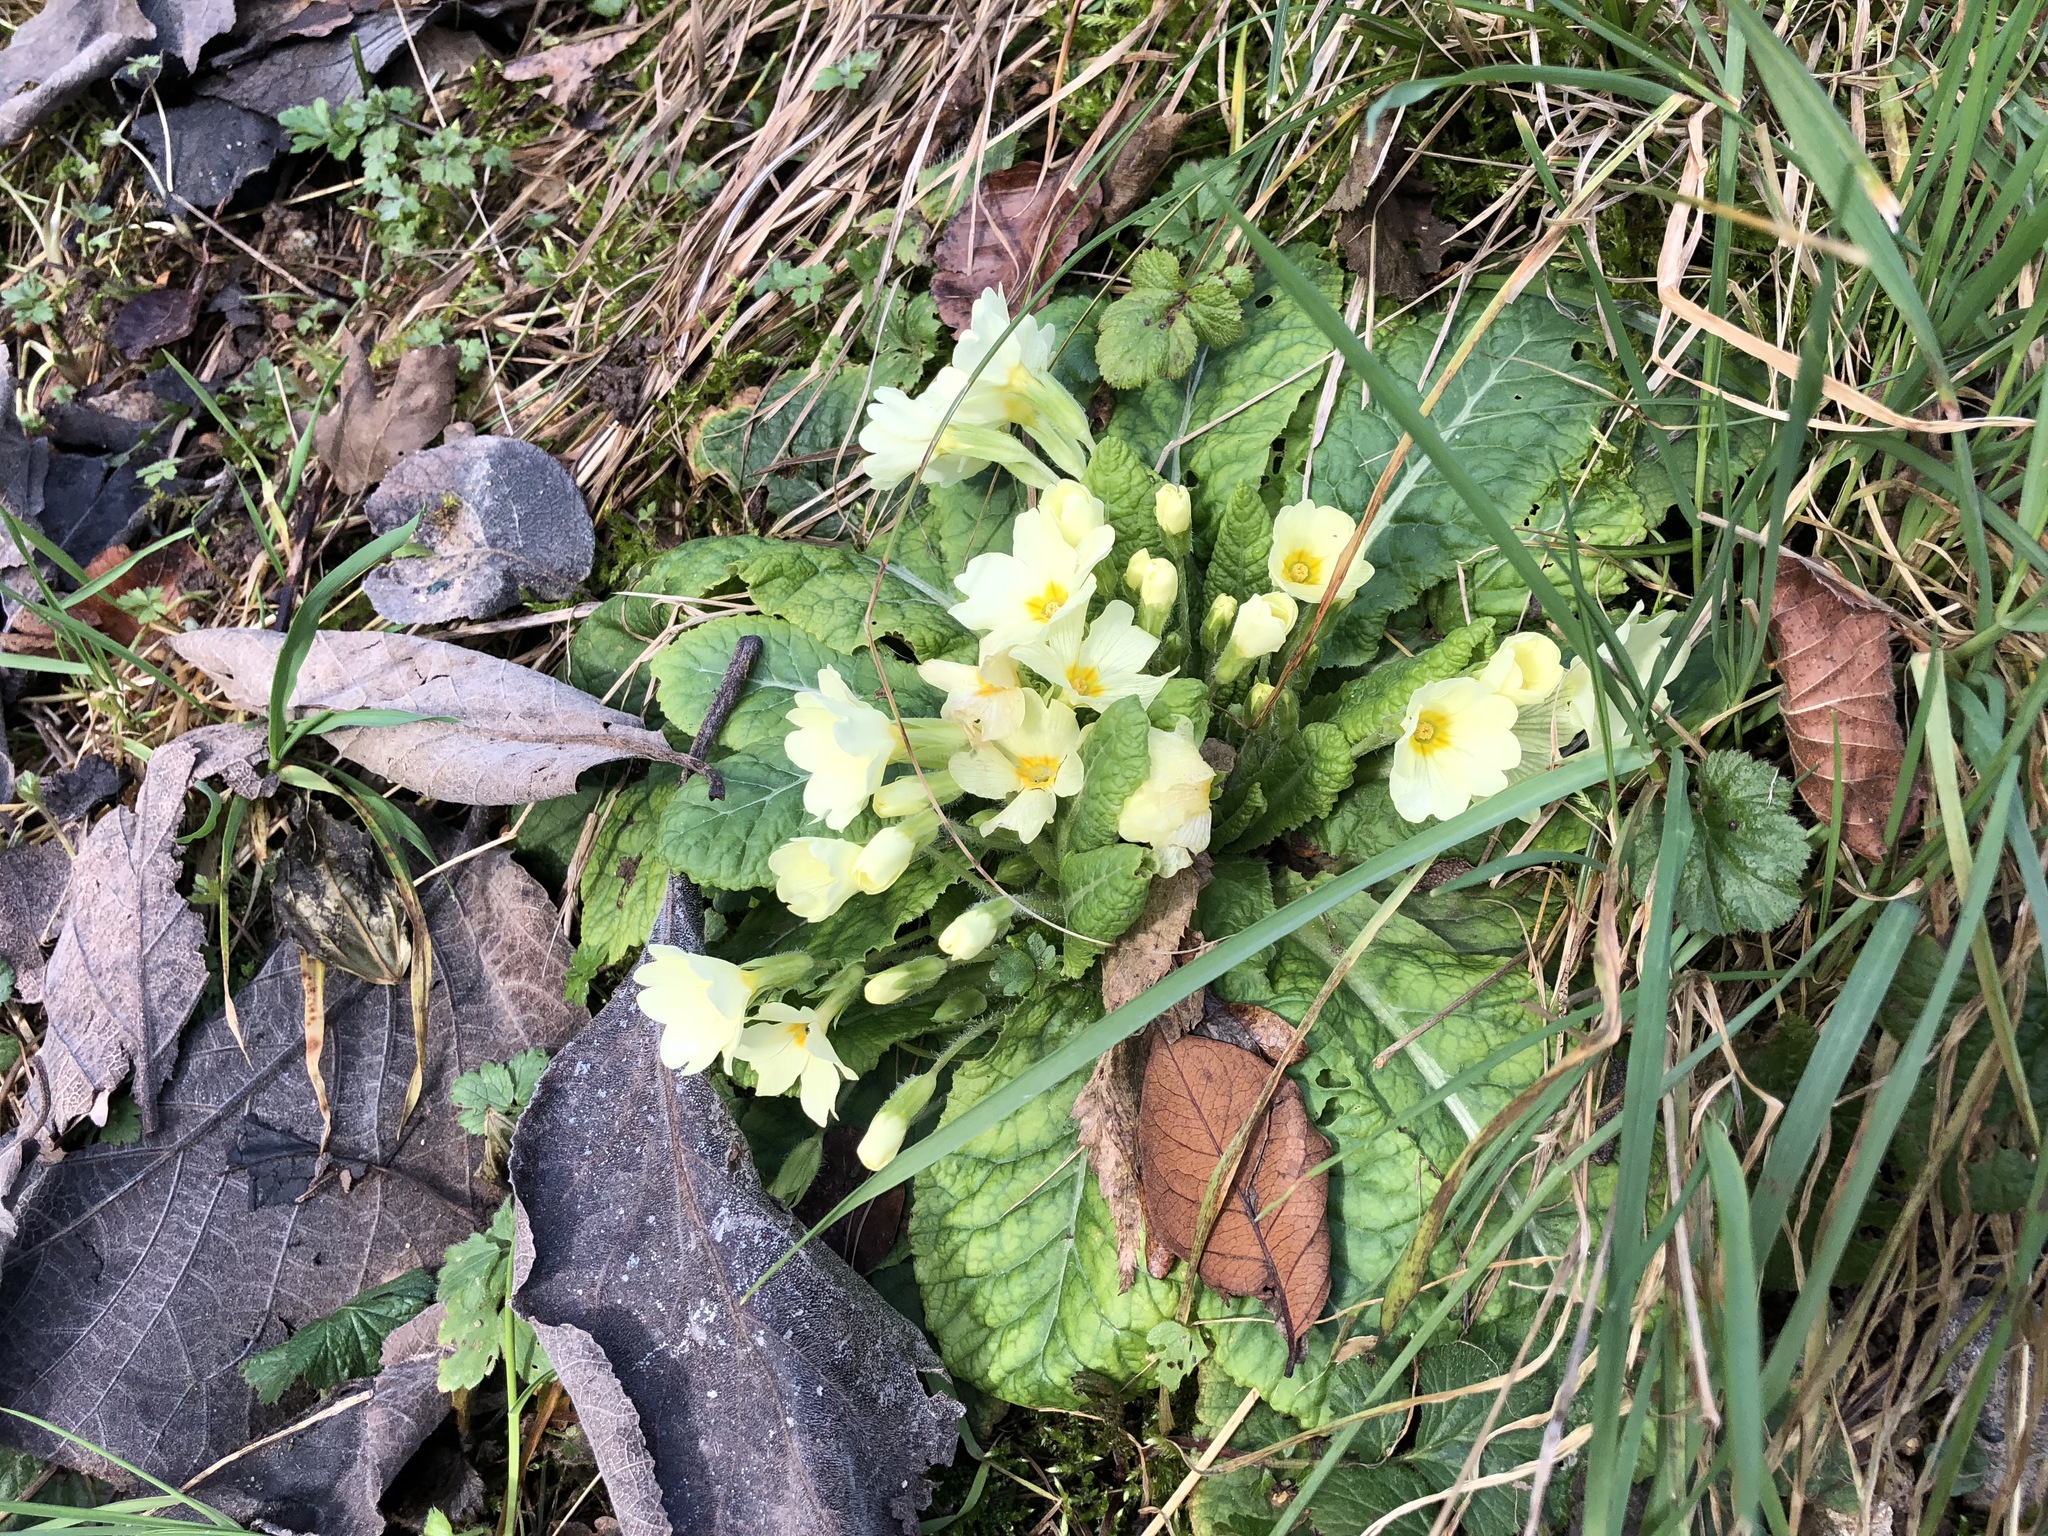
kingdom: Plantae
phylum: Tracheophyta
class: Magnoliopsida
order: Ericales
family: Primulaceae
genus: Primula
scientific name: Primula vulgaris
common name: Primrose
